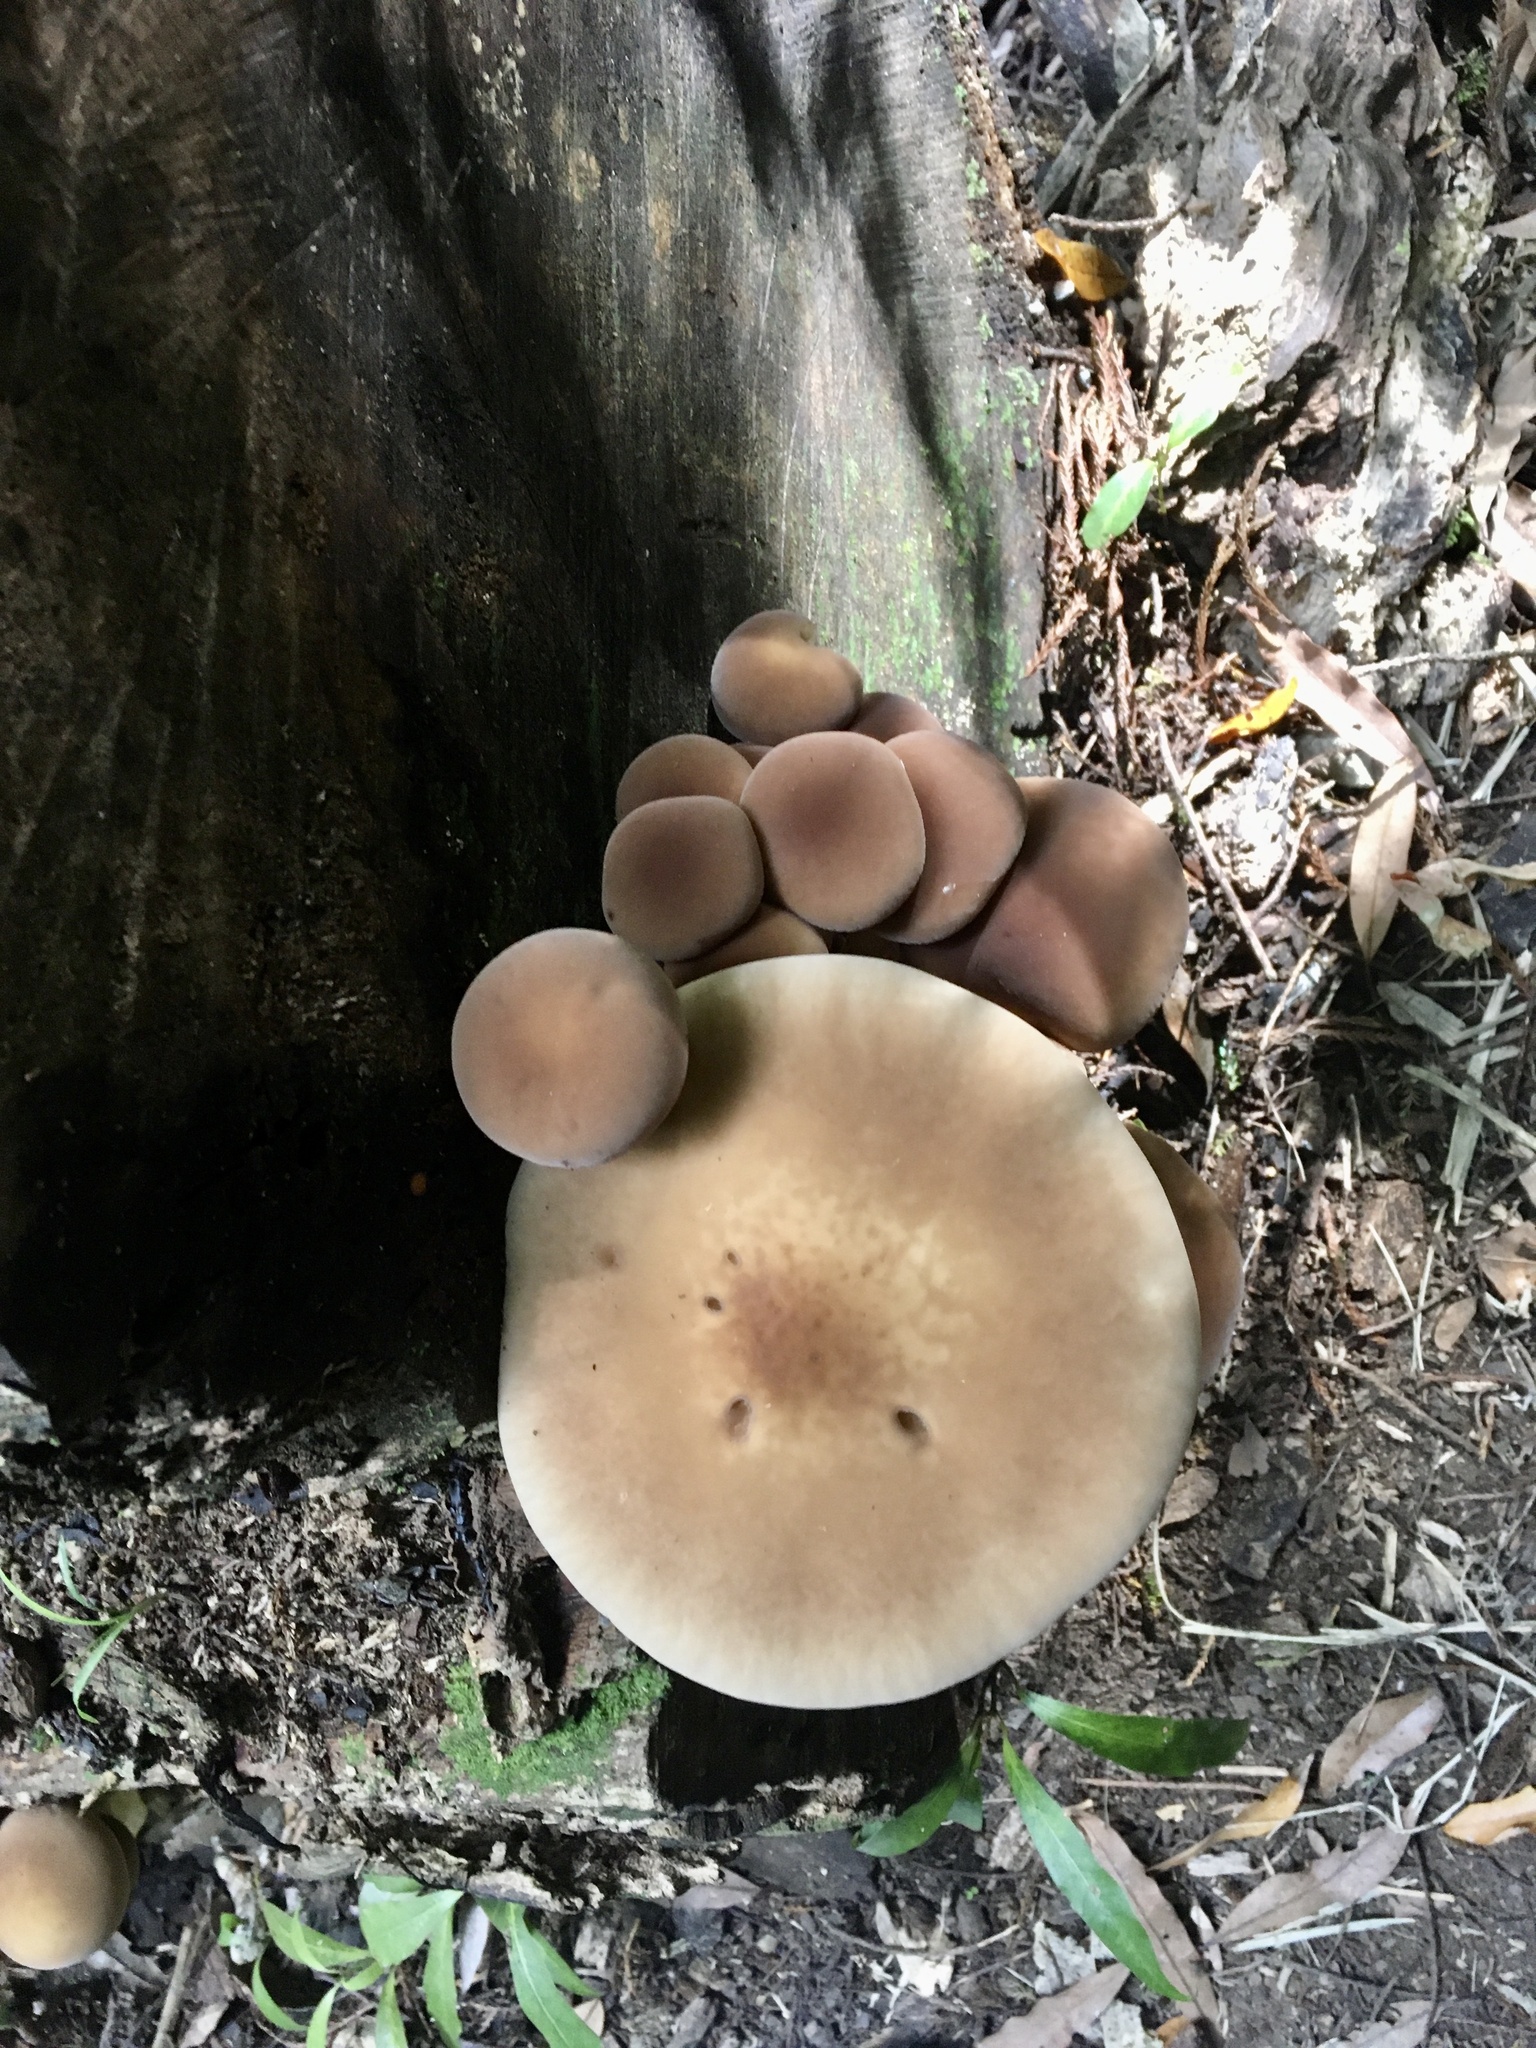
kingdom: Fungi
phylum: Basidiomycota
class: Agaricomycetes
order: Agaricales
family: Tubariaceae
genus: Cyclocybe
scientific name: Cyclocybe parasitica
